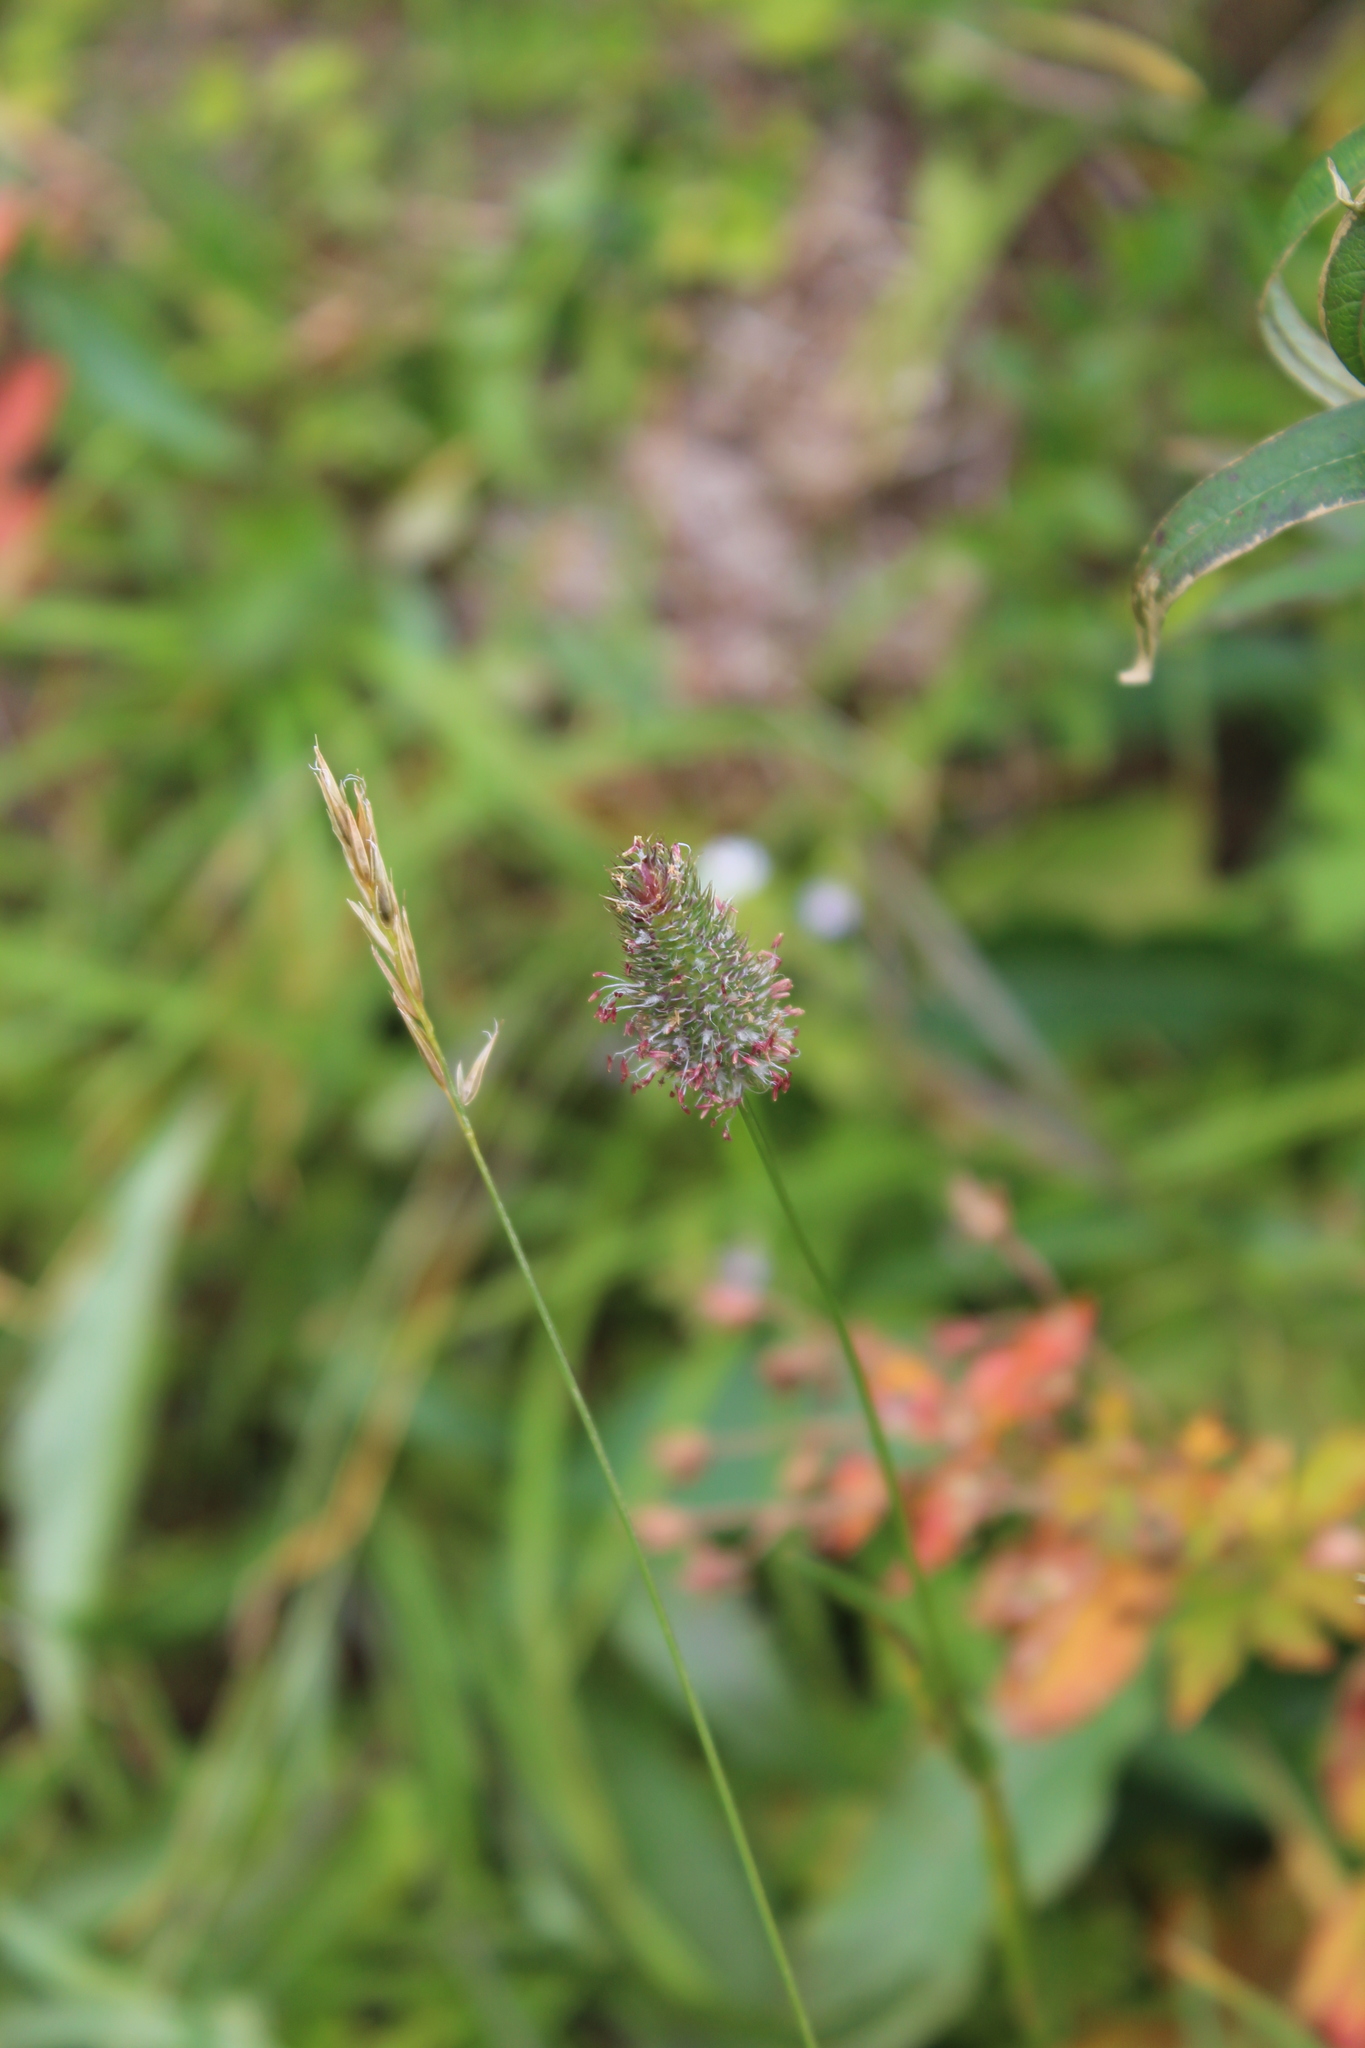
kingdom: Plantae
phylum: Tracheophyta
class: Liliopsida
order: Poales
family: Poaceae
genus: Phleum
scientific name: Phleum alpinum
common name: Alpine cat's-tail
